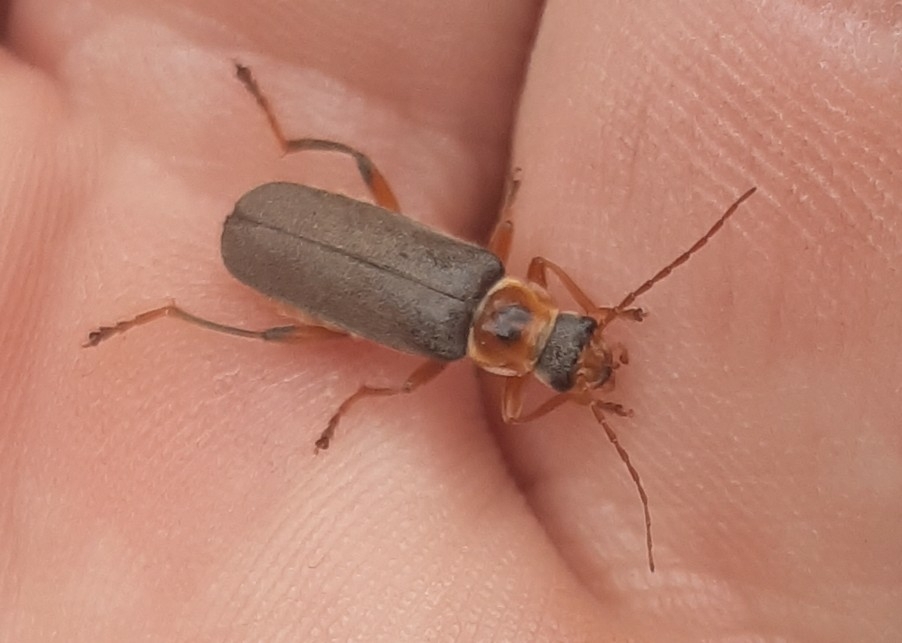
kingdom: Animalia
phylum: Arthropoda
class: Insecta
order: Coleoptera
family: Cantharidae
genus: Cantharis
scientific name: Cantharis nigricans
